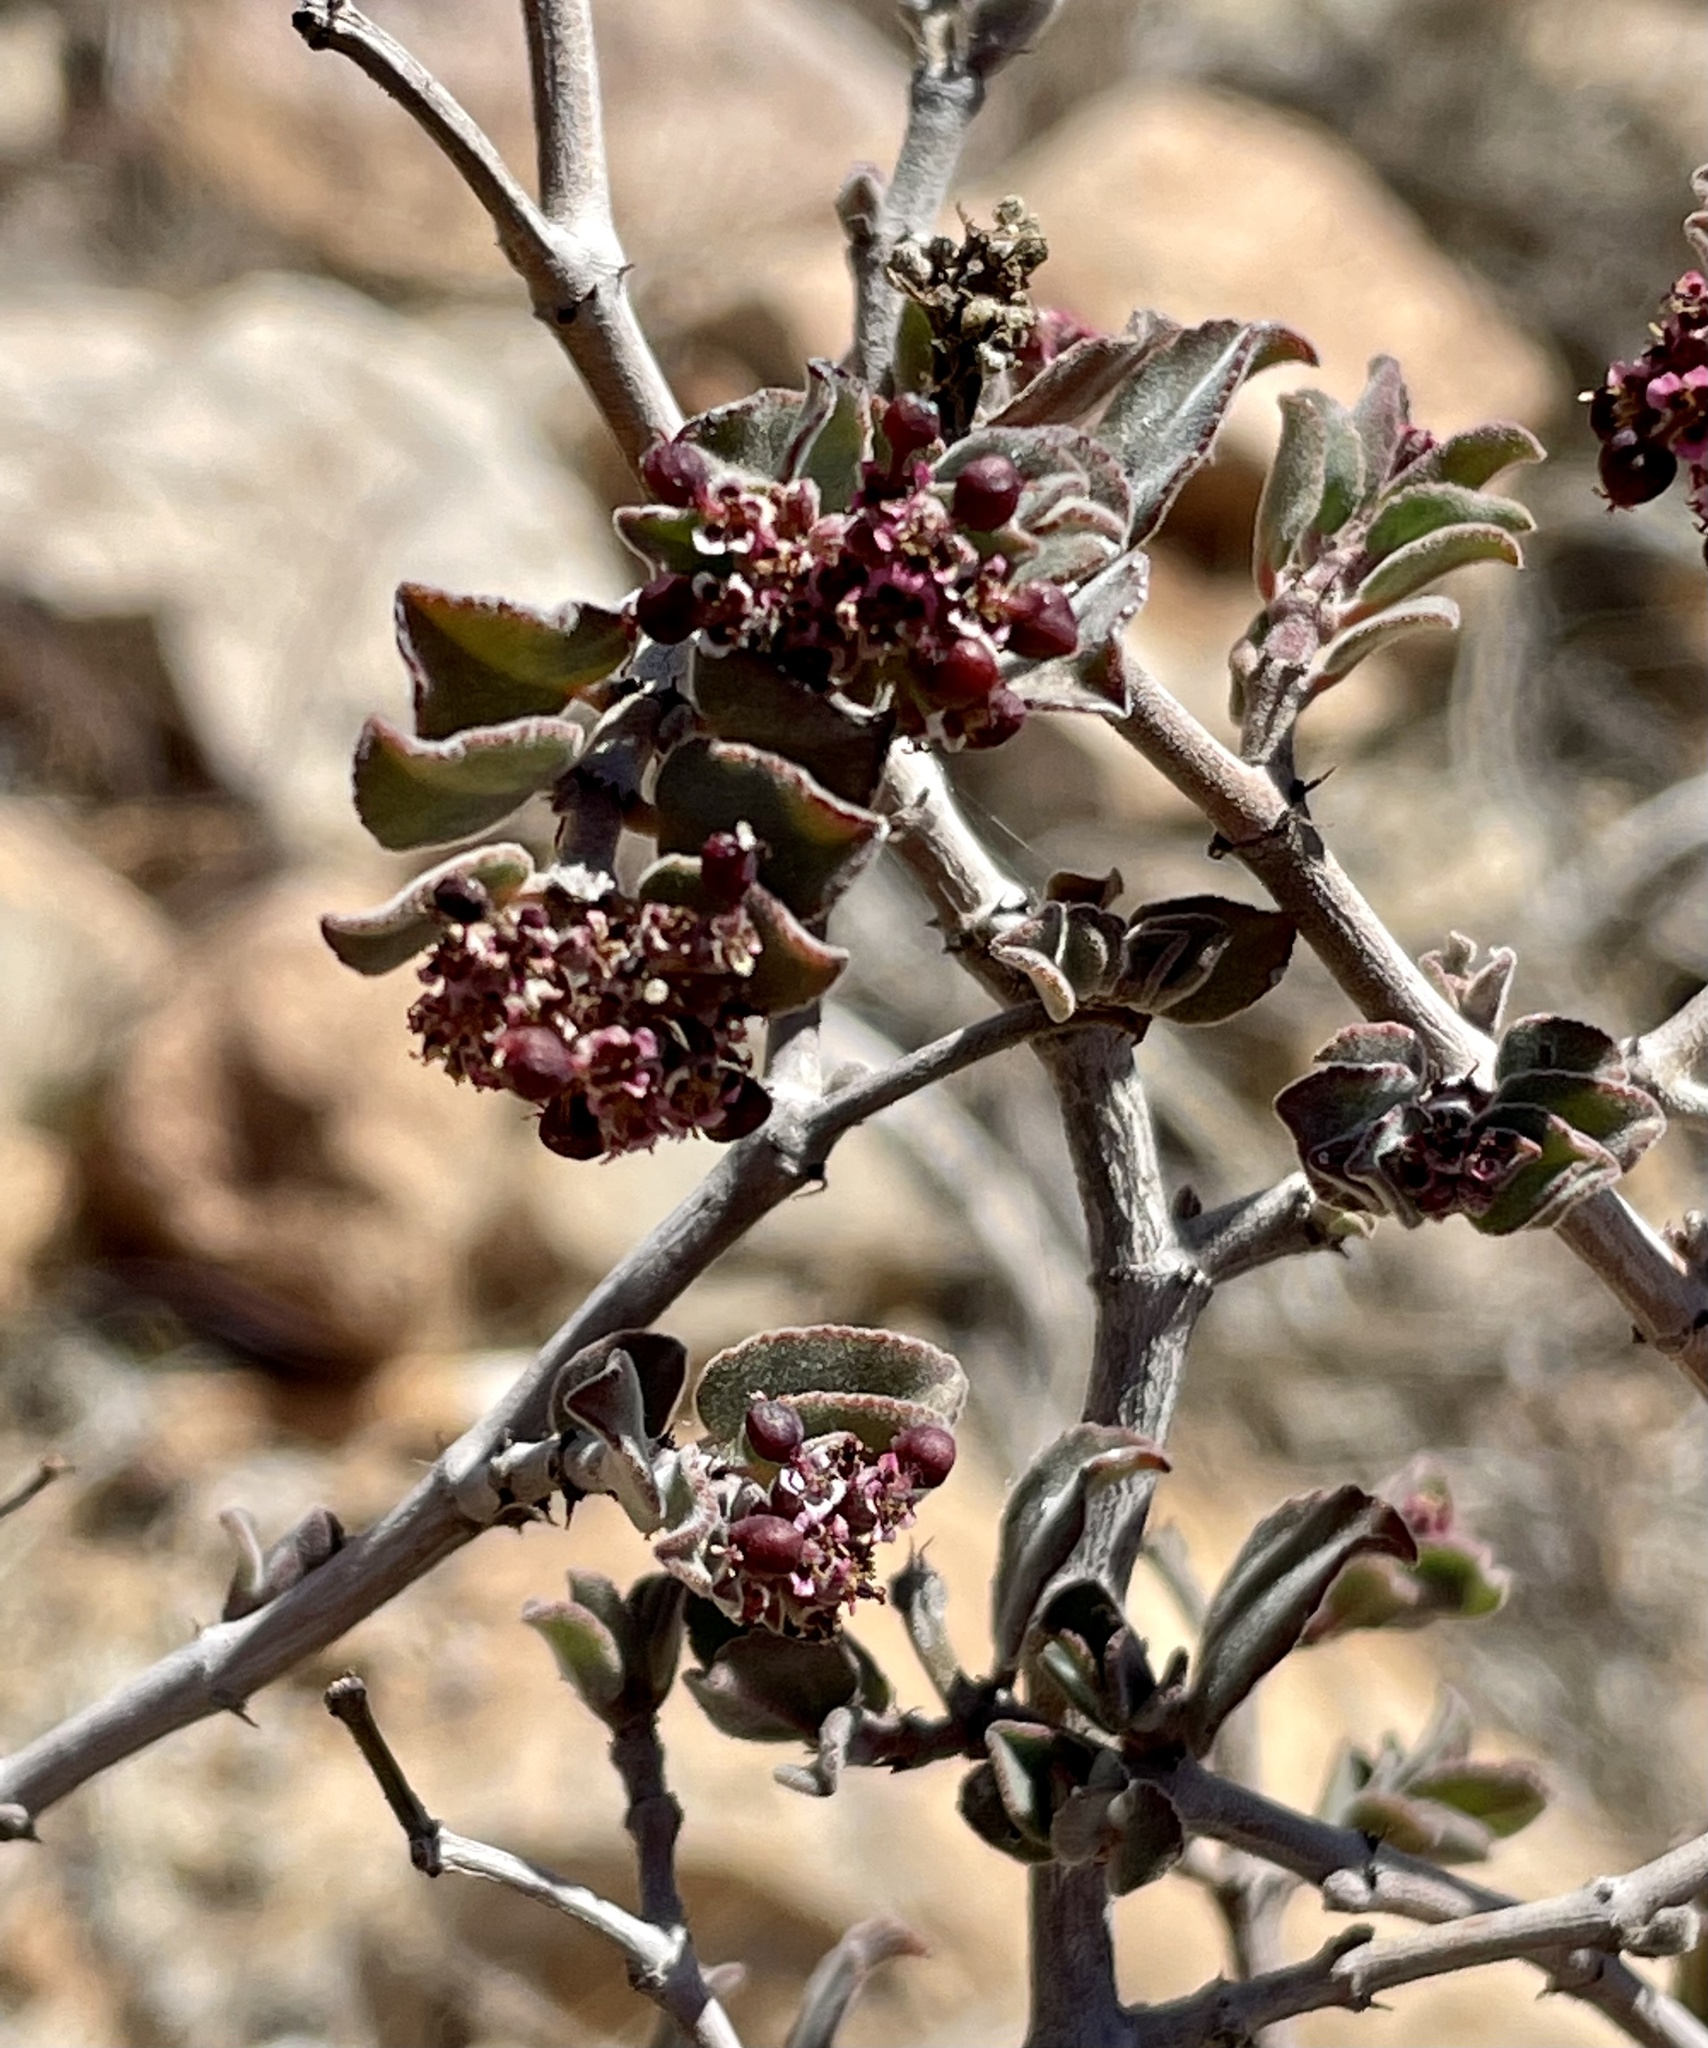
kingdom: Plantae
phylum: Tracheophyta
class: Magnoliopsida
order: Malpighiales
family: Euphorbiaceae
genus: Euphorbia
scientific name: Euphorbia tomentulosa
